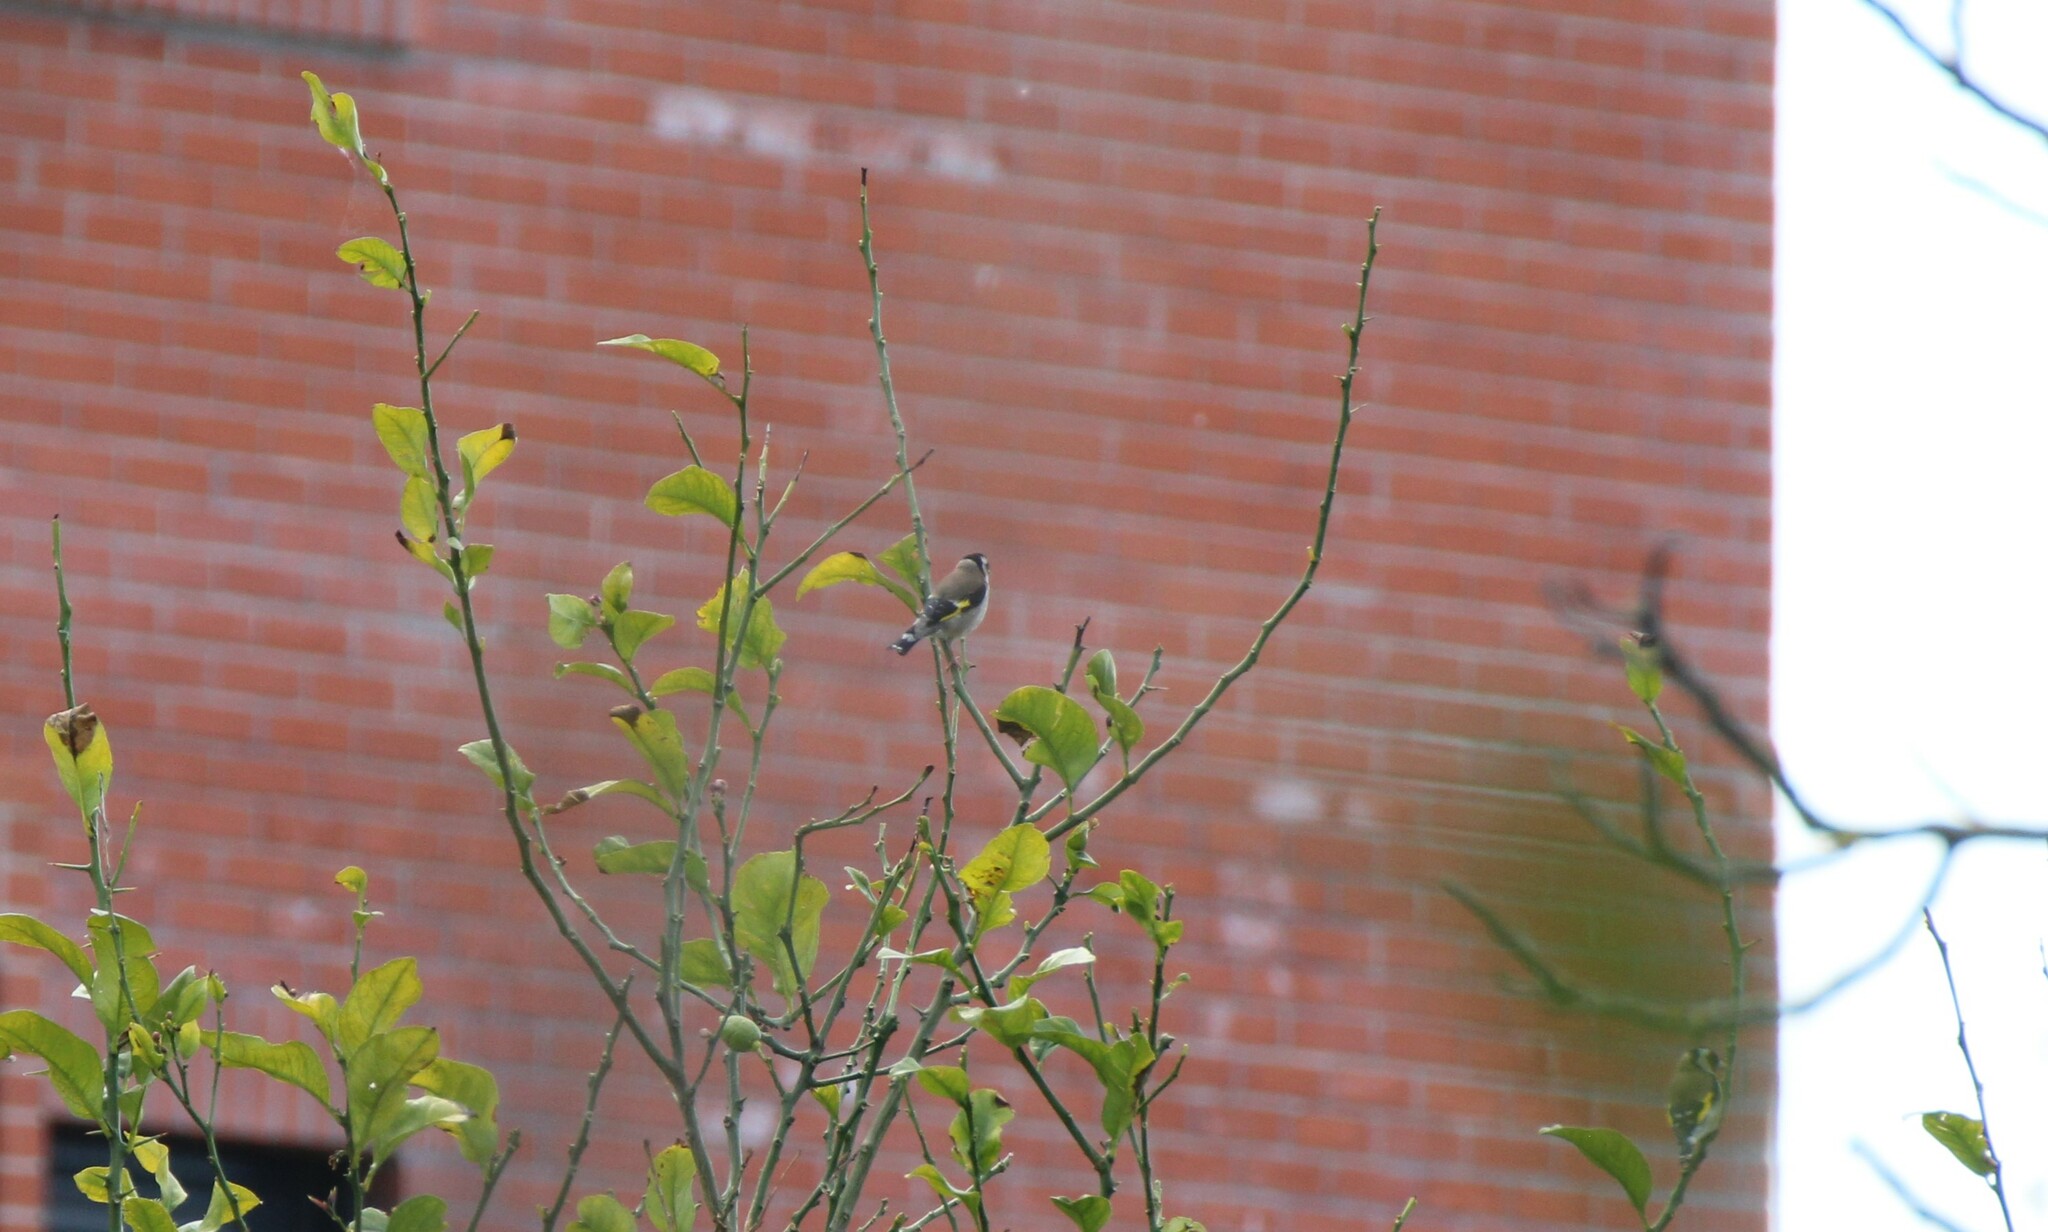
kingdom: Animalia
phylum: Chordata
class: Aves
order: Passeriformes
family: Fringillidae
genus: Carduelis
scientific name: Carduelis carduelis
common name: European goldfinch
